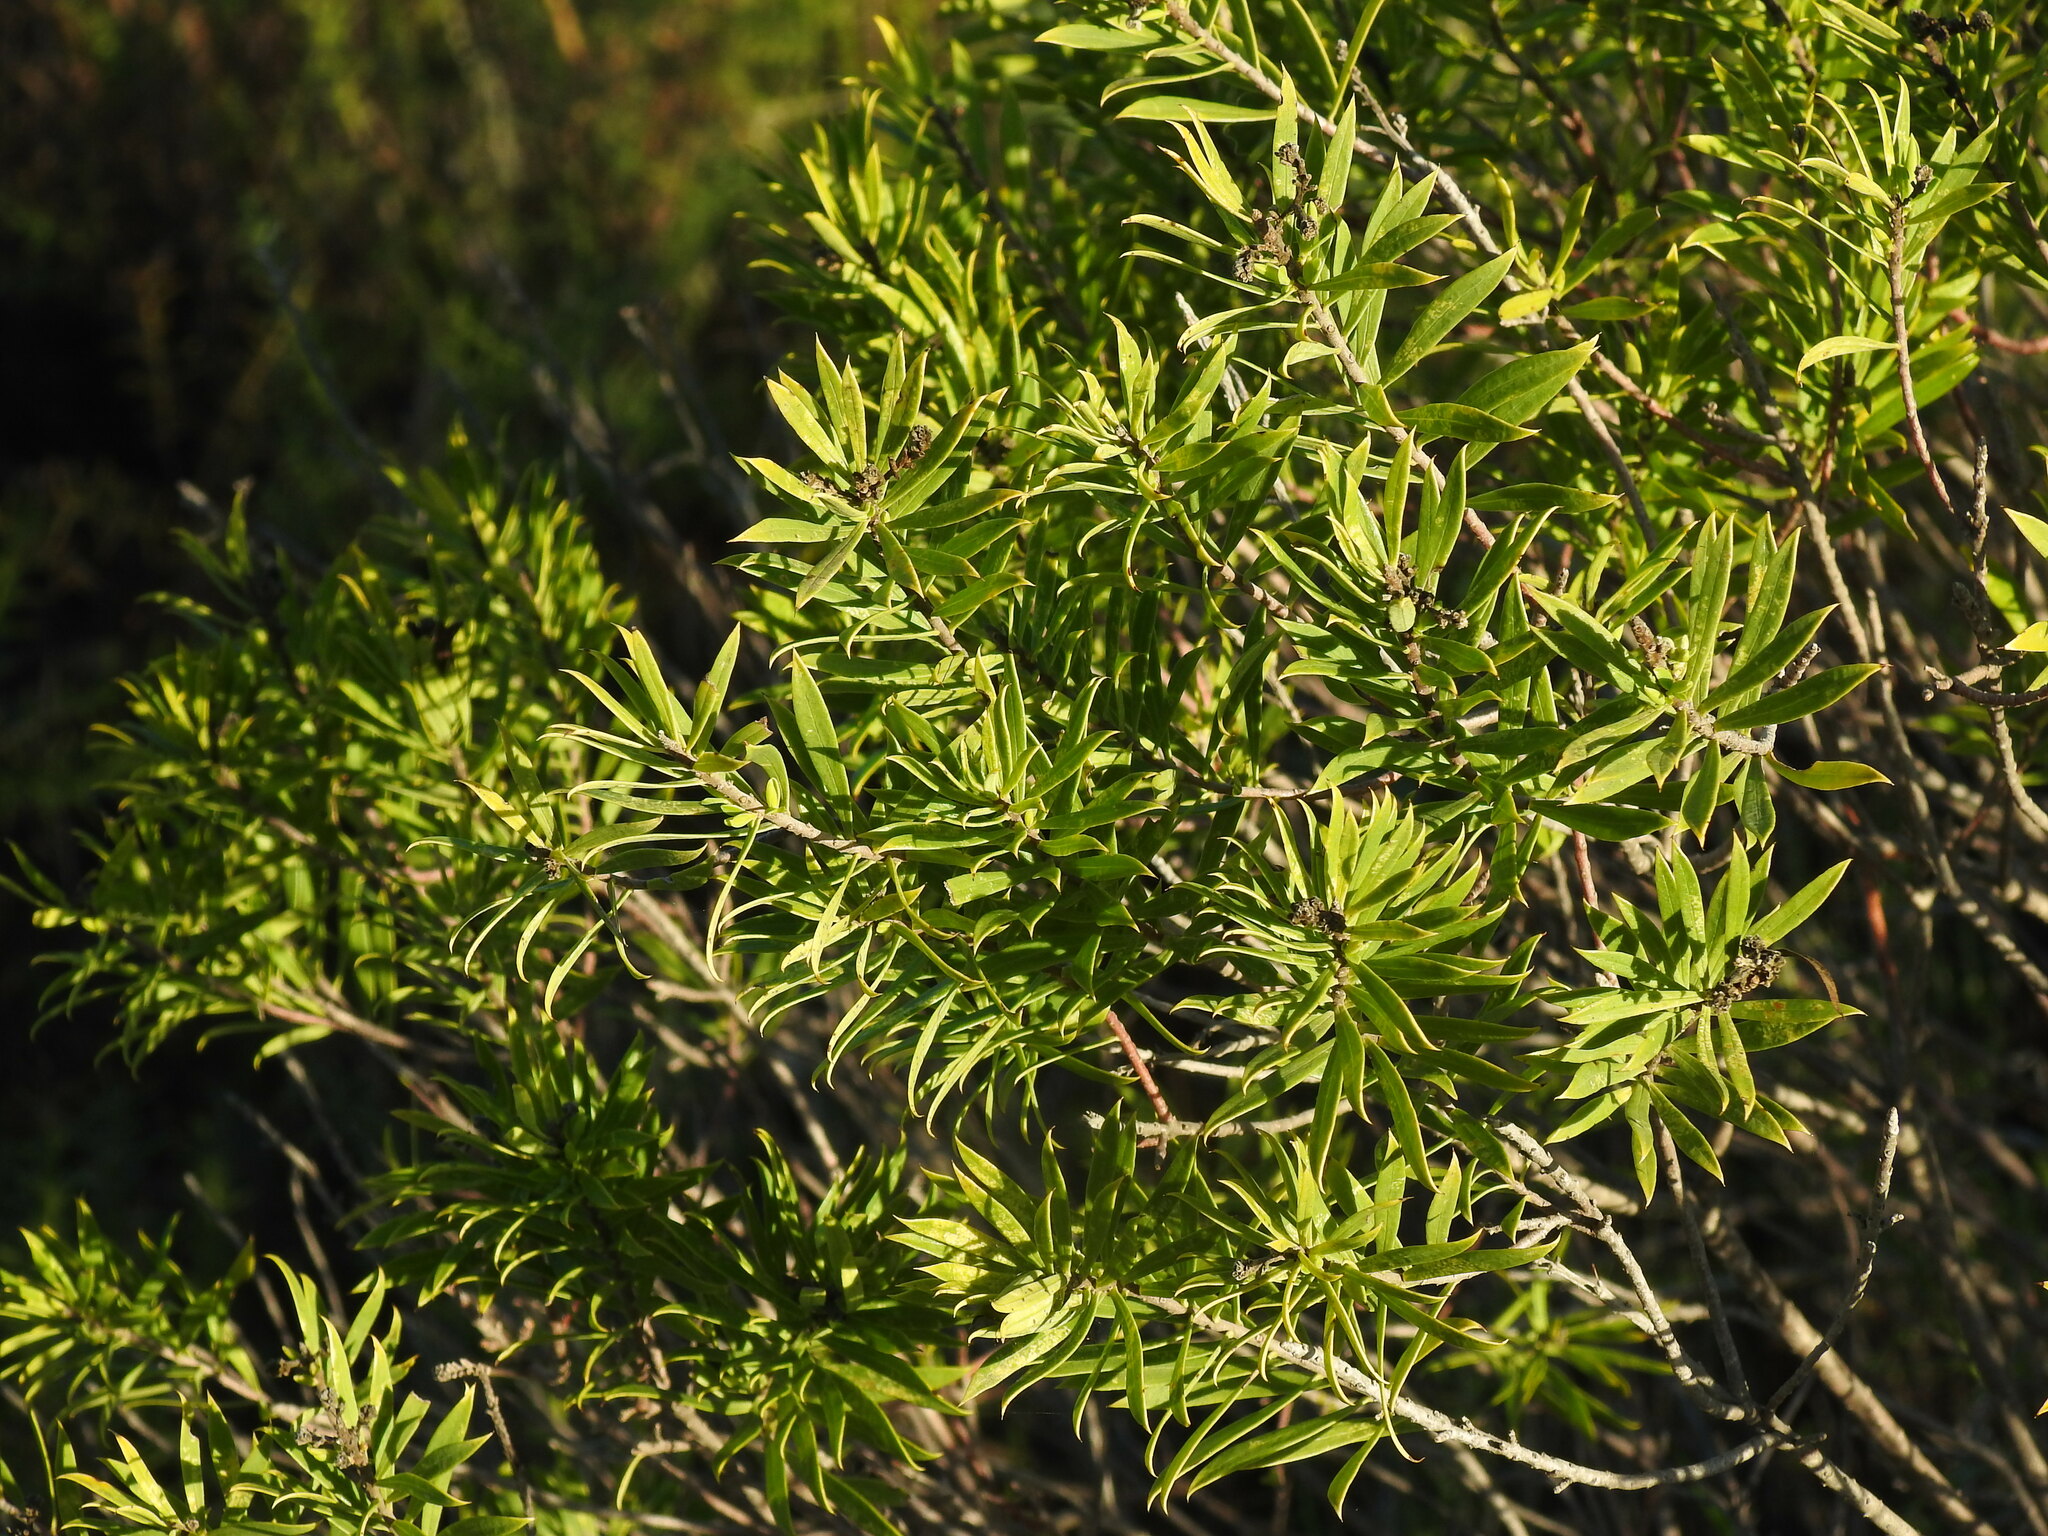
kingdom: Plantae
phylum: Tracheophyta
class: Magnoliopsida
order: Malvales
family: Thymelaeaceae
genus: Daphne
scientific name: Daphne gnidium
